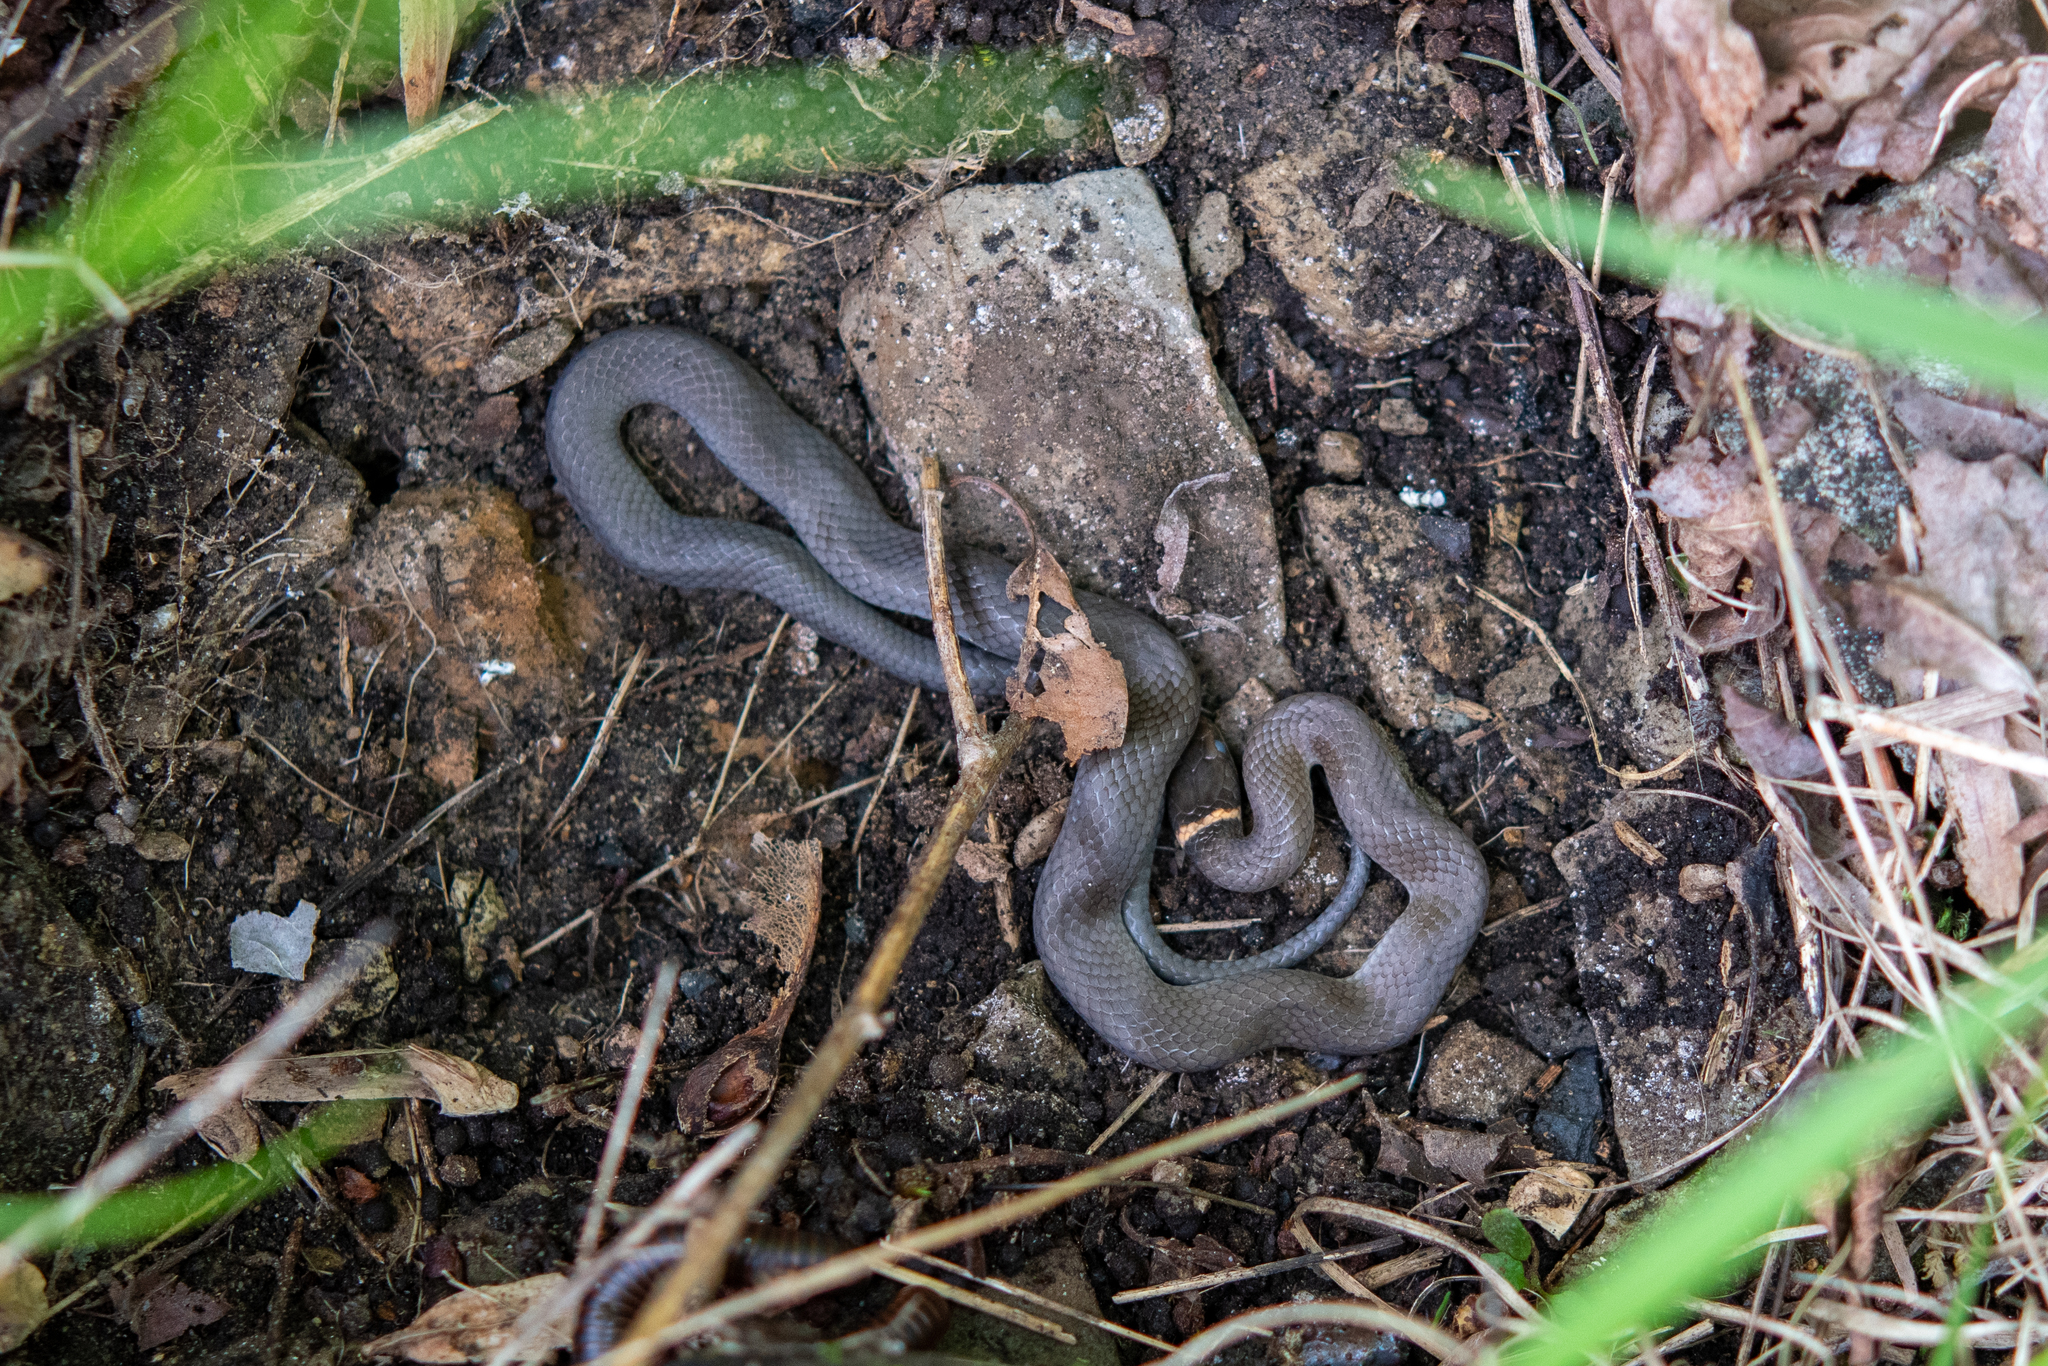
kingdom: Animalia
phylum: Chordata
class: Squamata
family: Colubridae
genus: Diadophis
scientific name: Diadophis punctatus
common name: Ringneck snake
